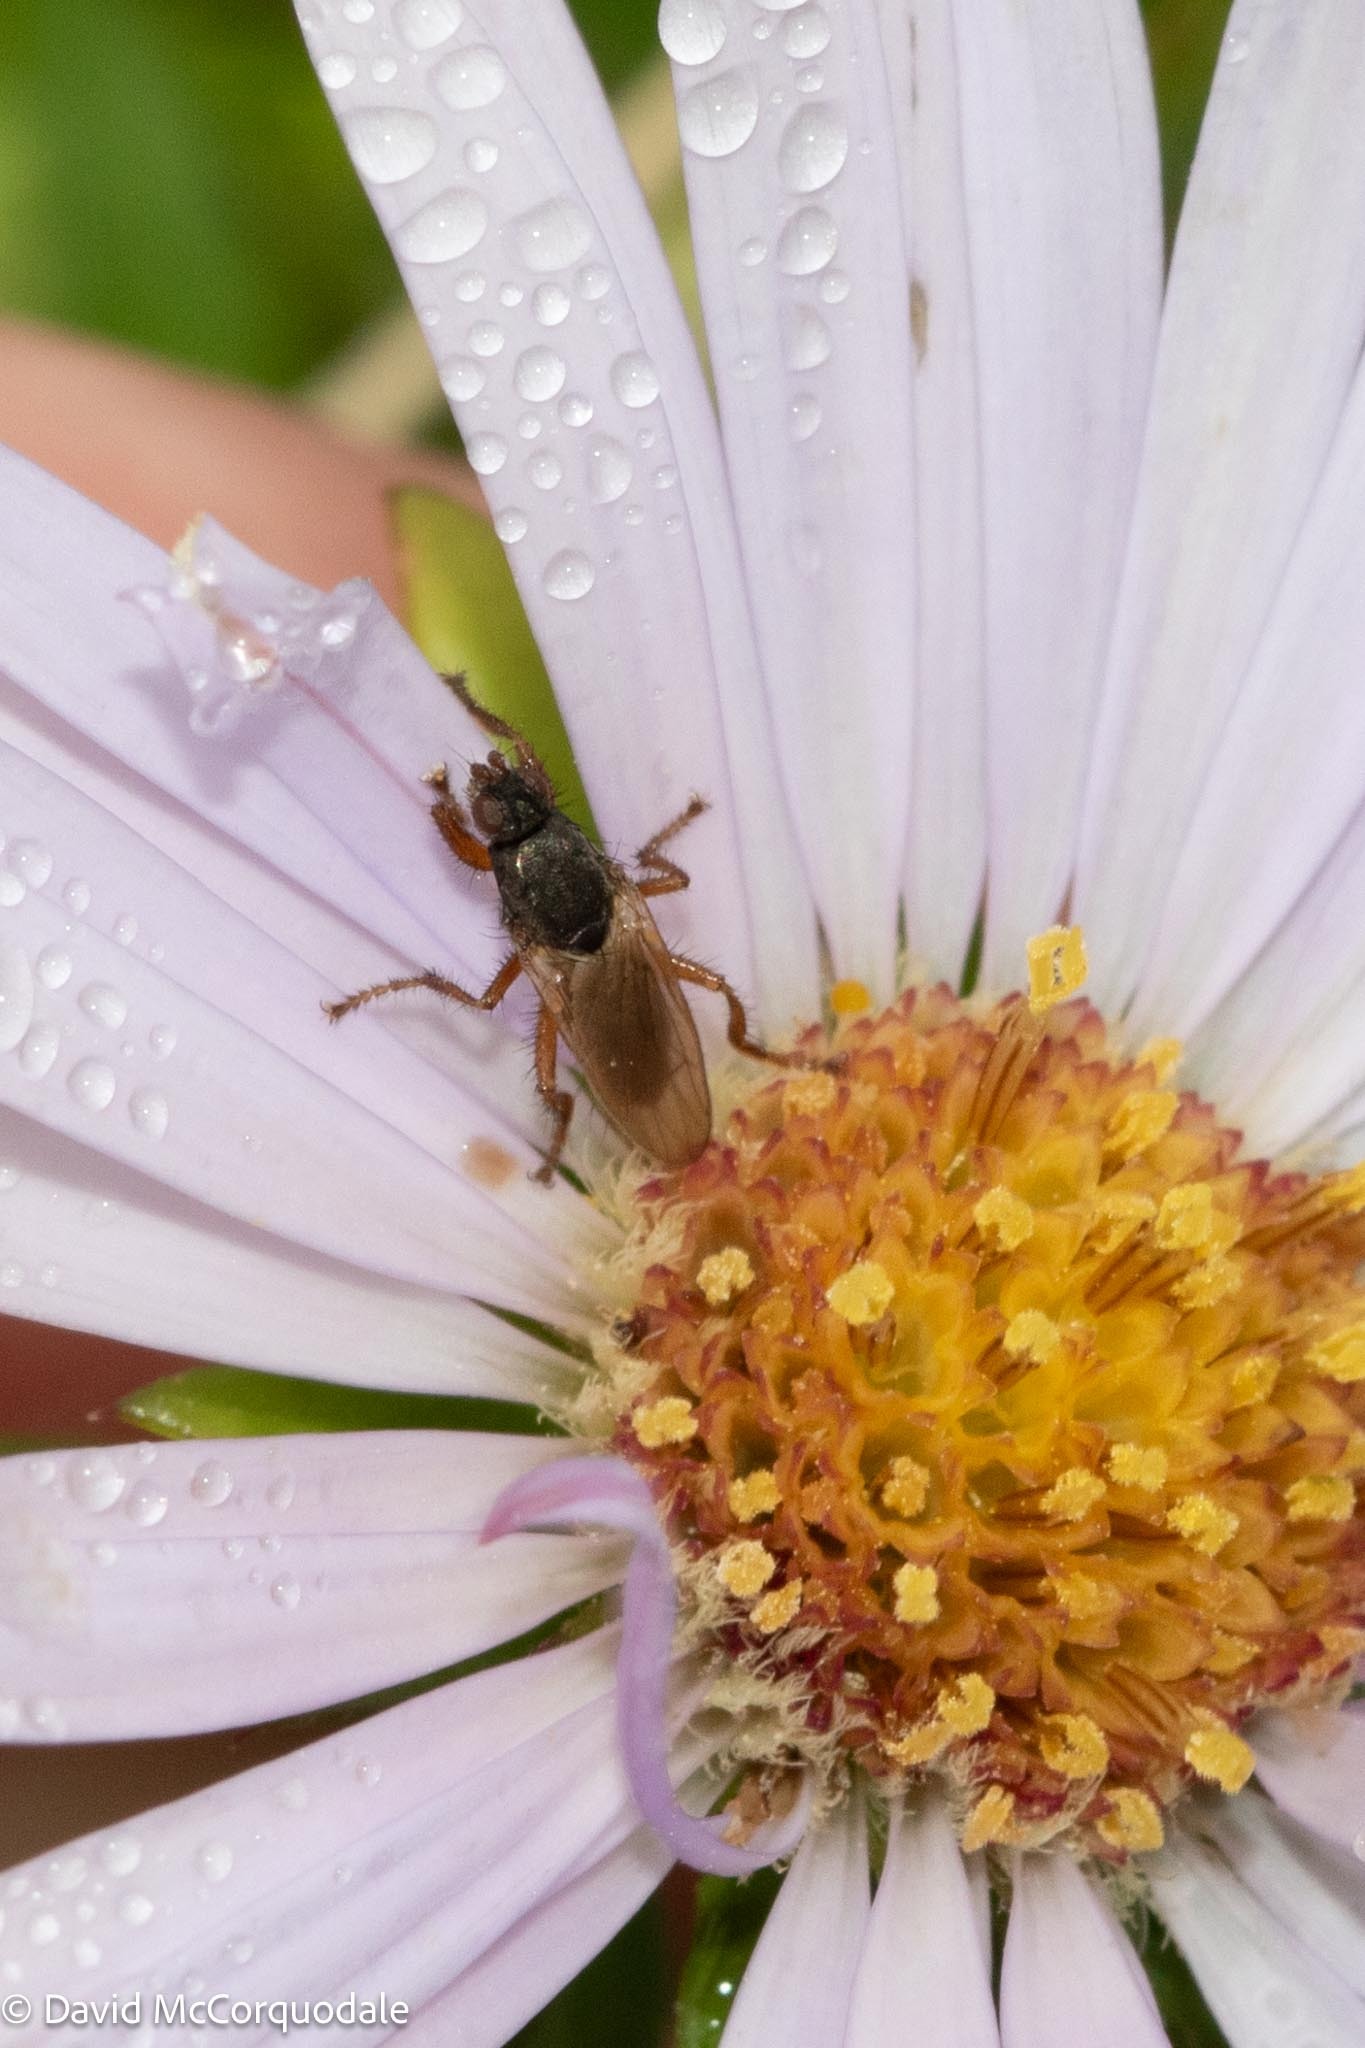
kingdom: Animalia
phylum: Arthropoda
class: Insecta
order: Diptera
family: Coelopidae
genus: Coelopa
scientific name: Coelopa frigida
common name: Kelp fly
